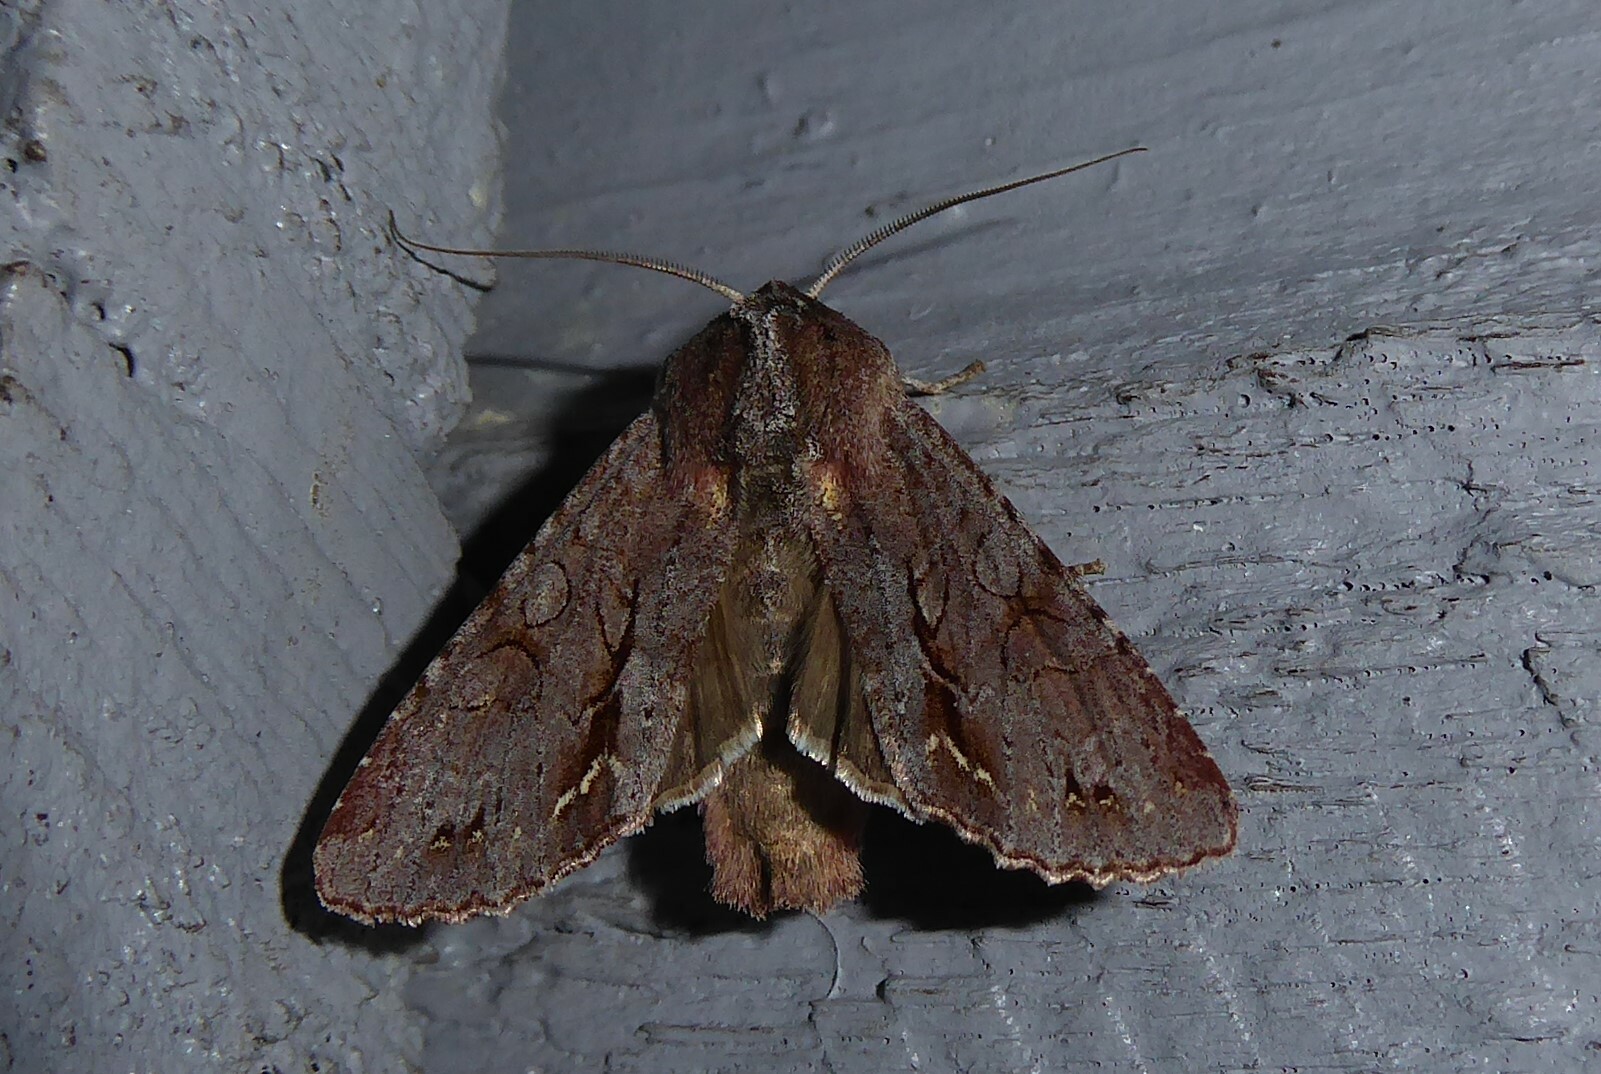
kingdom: Animalia
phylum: Arthropoda
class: Insecta
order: Lepidoptera
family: Noctuidae
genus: Ichneutica
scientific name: Ichneutica
